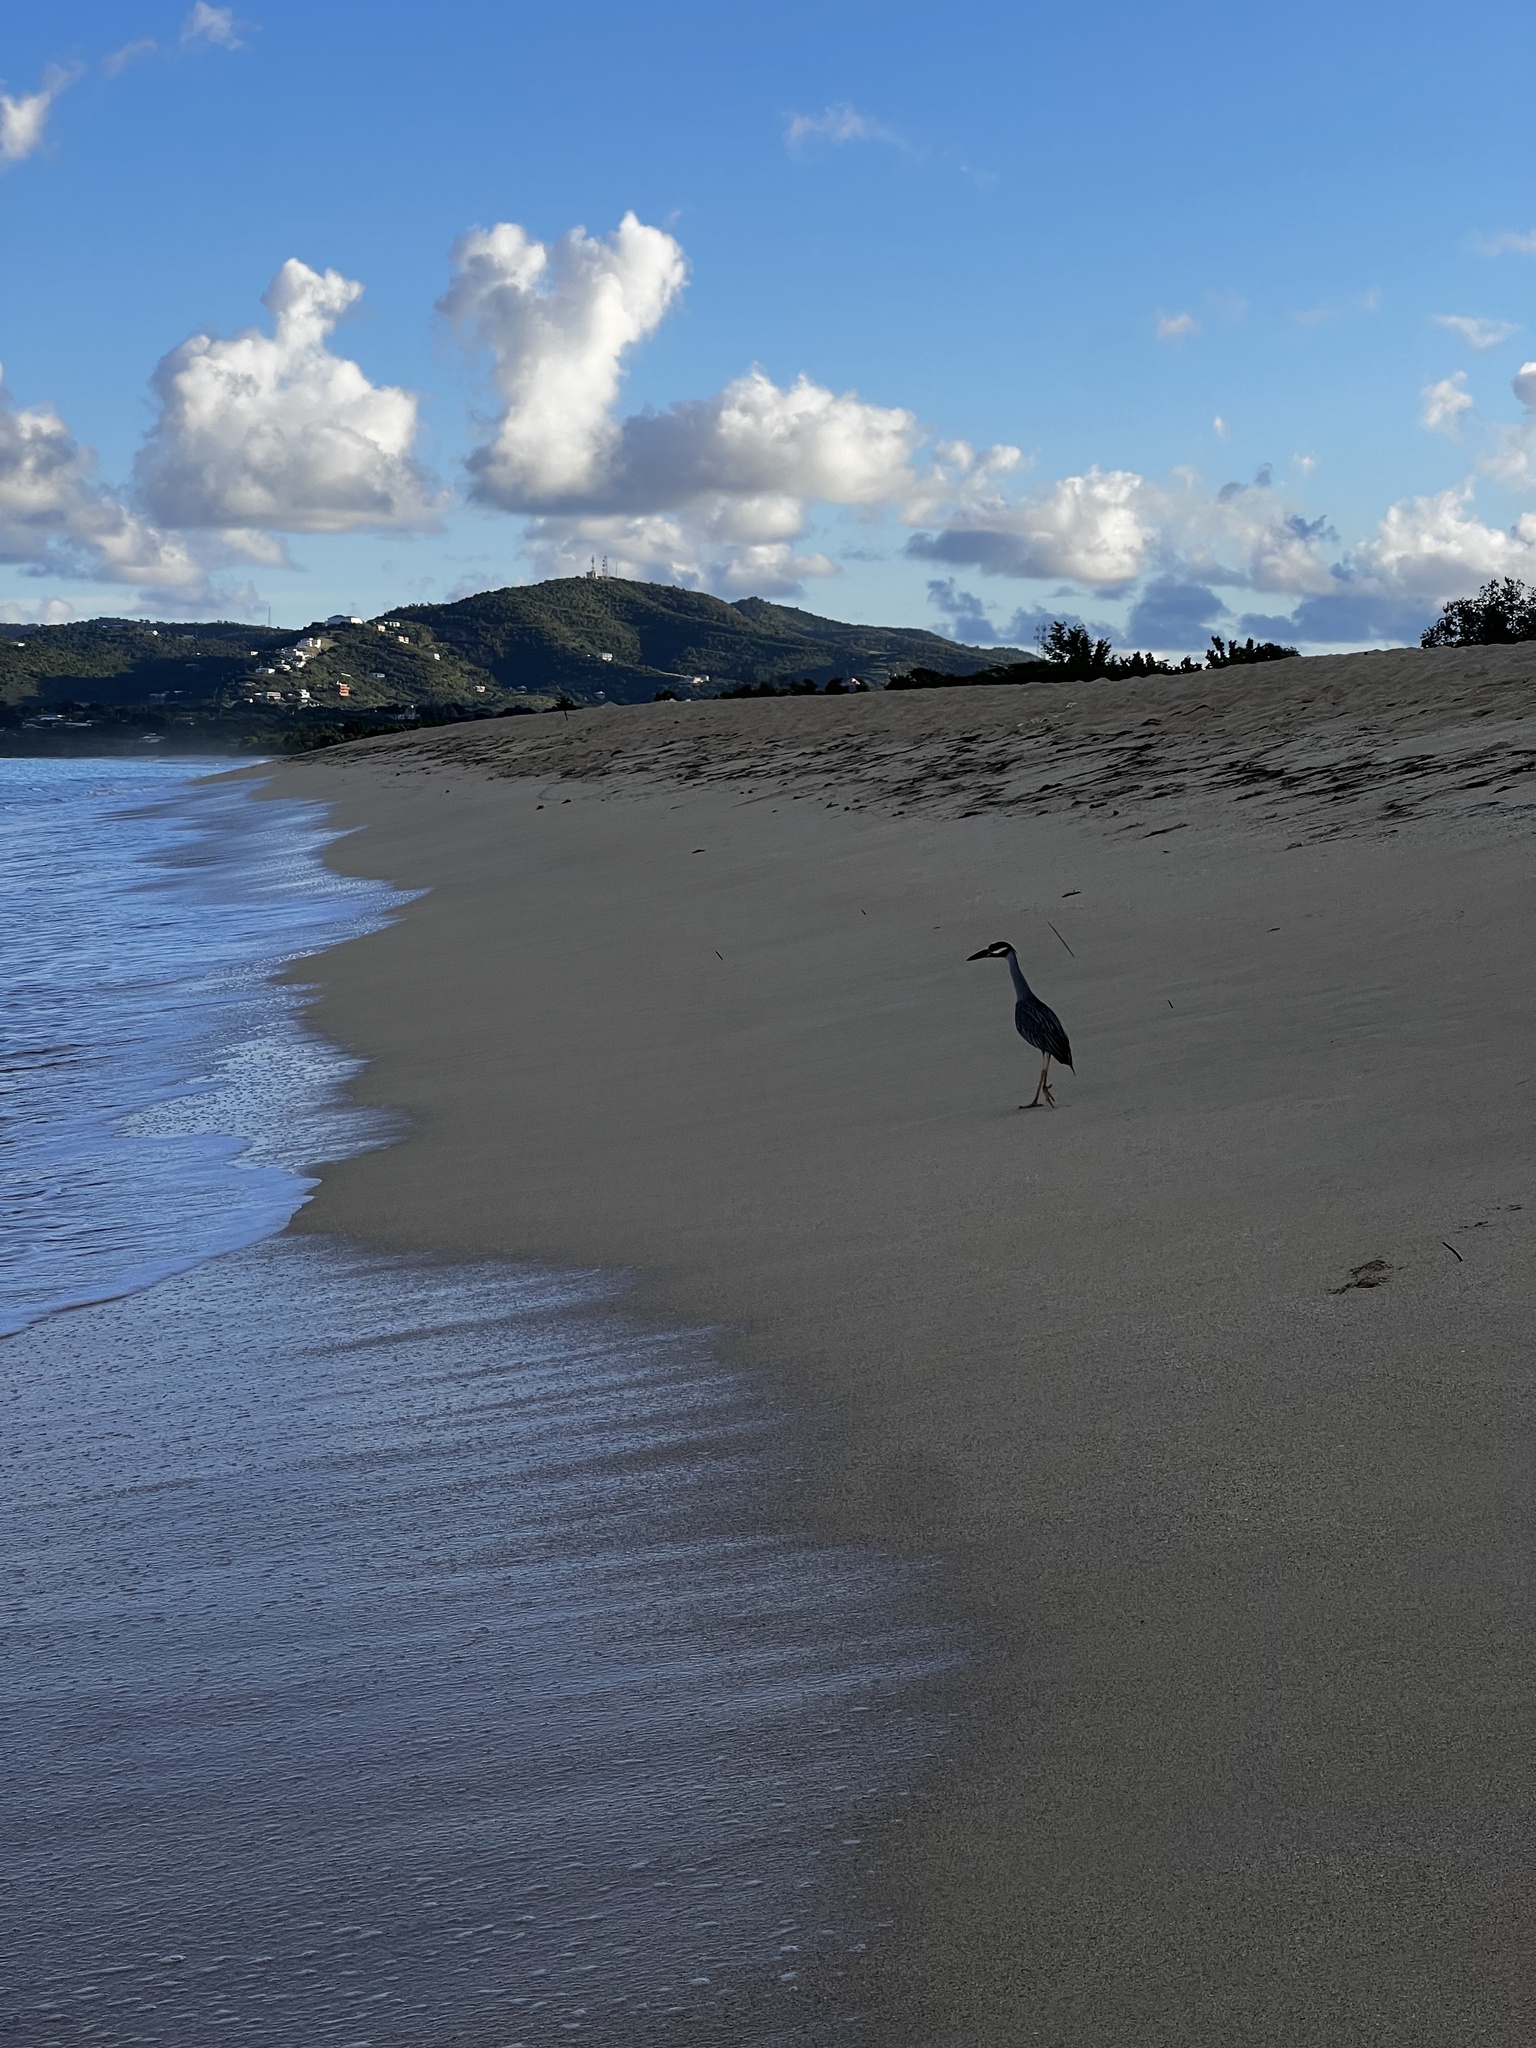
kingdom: Animalia
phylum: Chordata
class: Aves
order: Pelecaniformes
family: Ardeidae
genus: Nyctanassa
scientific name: Nyctanassa violacea
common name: Yellow-crowned night heron
